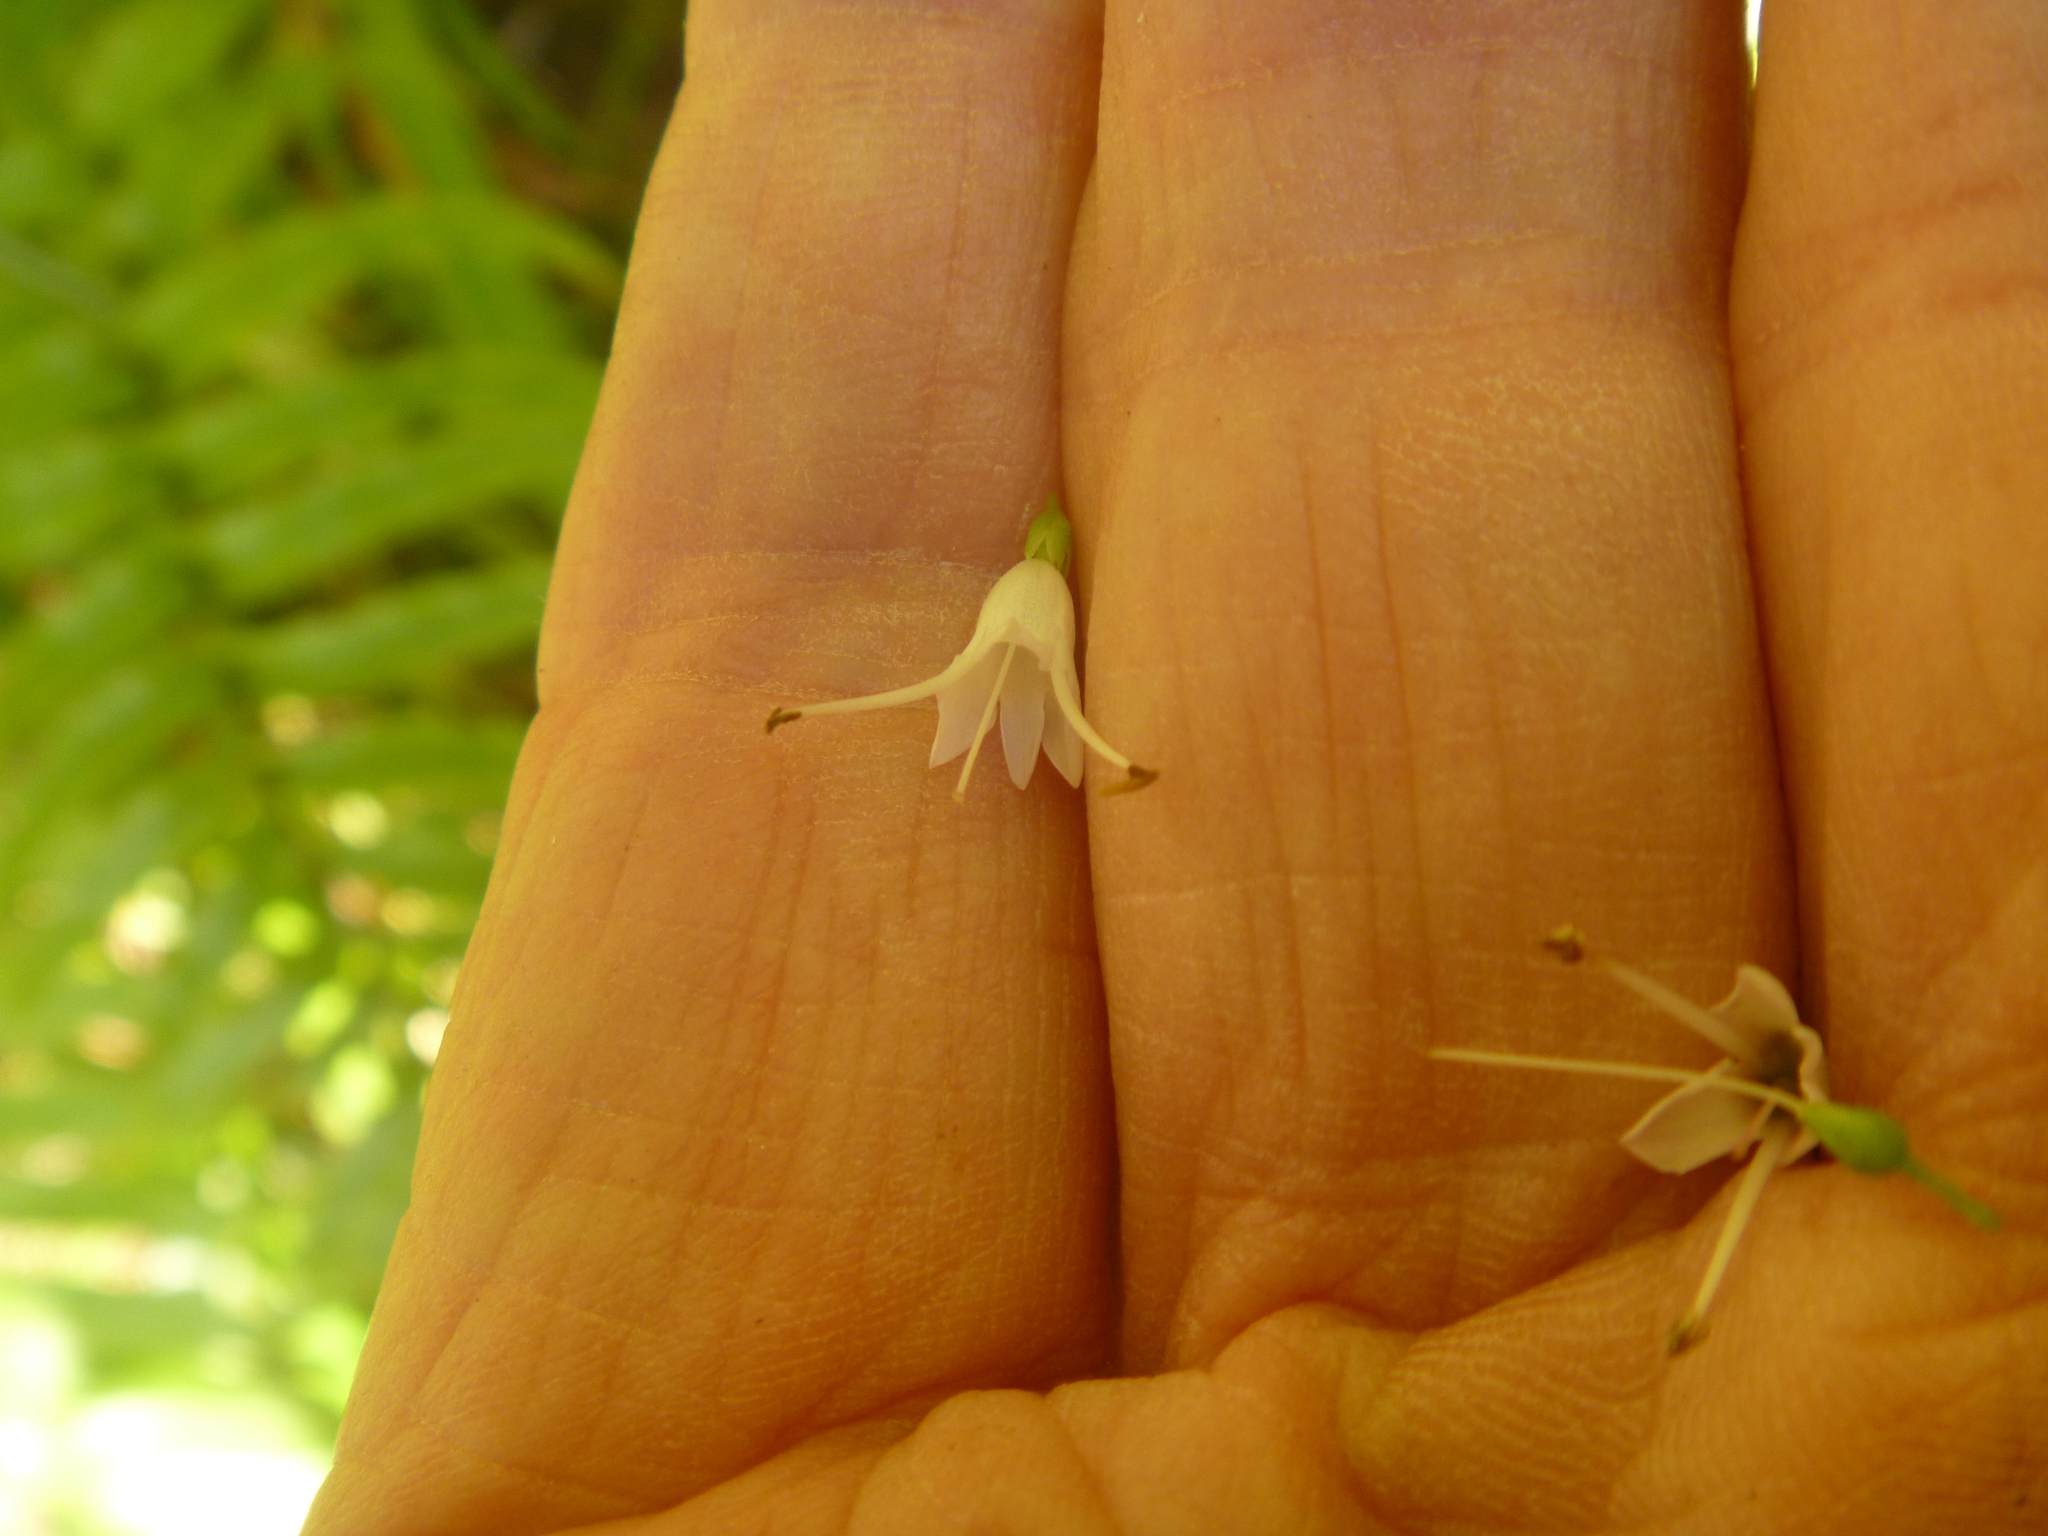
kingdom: Plantae
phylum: Tracheophyta
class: Magnoliopsida
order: Lamiales
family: Plantaginaceae
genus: Veronica
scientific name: Veronica macrocarpa
